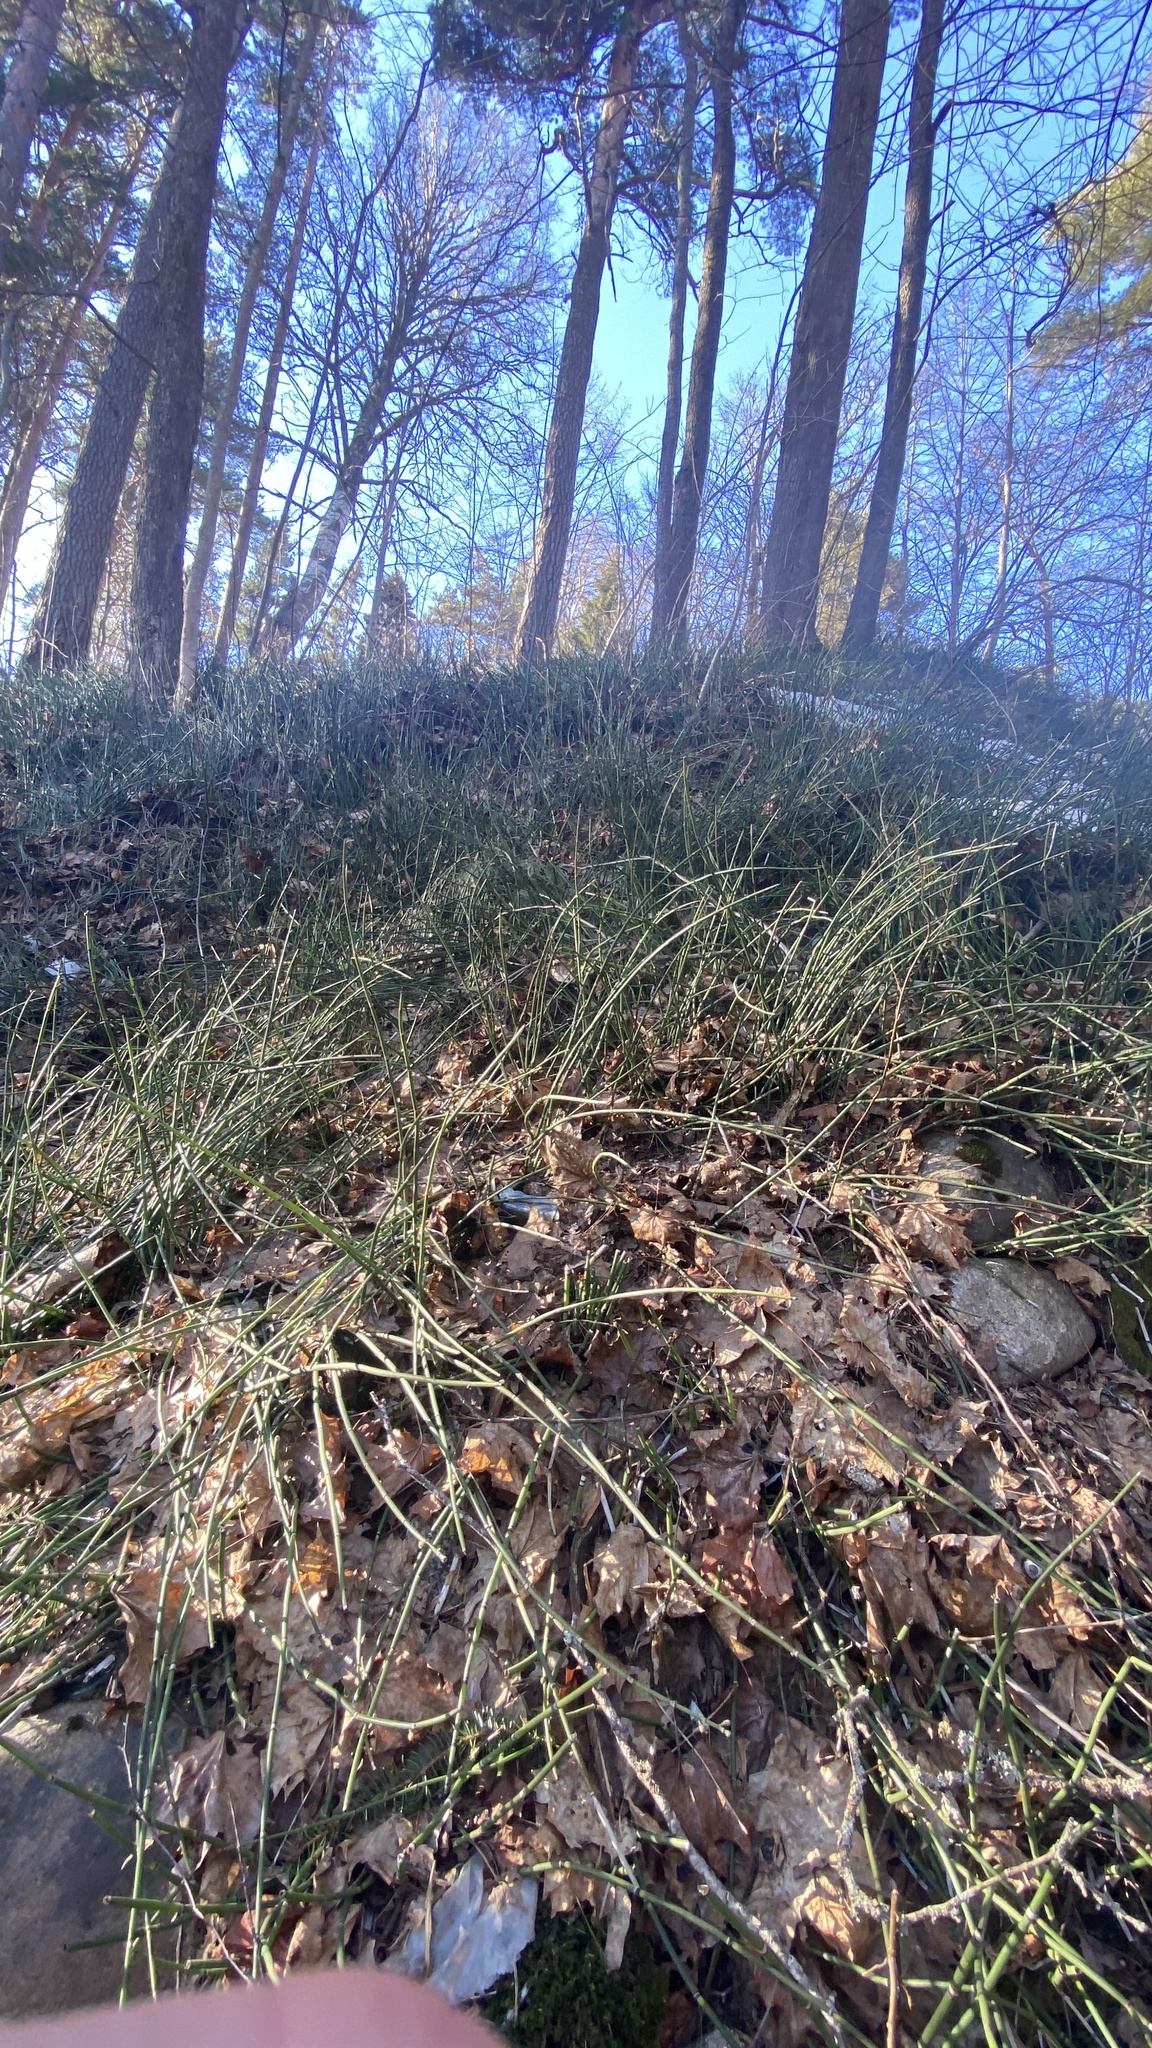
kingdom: Plantae
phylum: Tracheophyta
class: Polypodiopsida
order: Equisetales
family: Equisetaceae
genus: Equisetum
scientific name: Equisetum hyemale
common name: Rough horsetail
